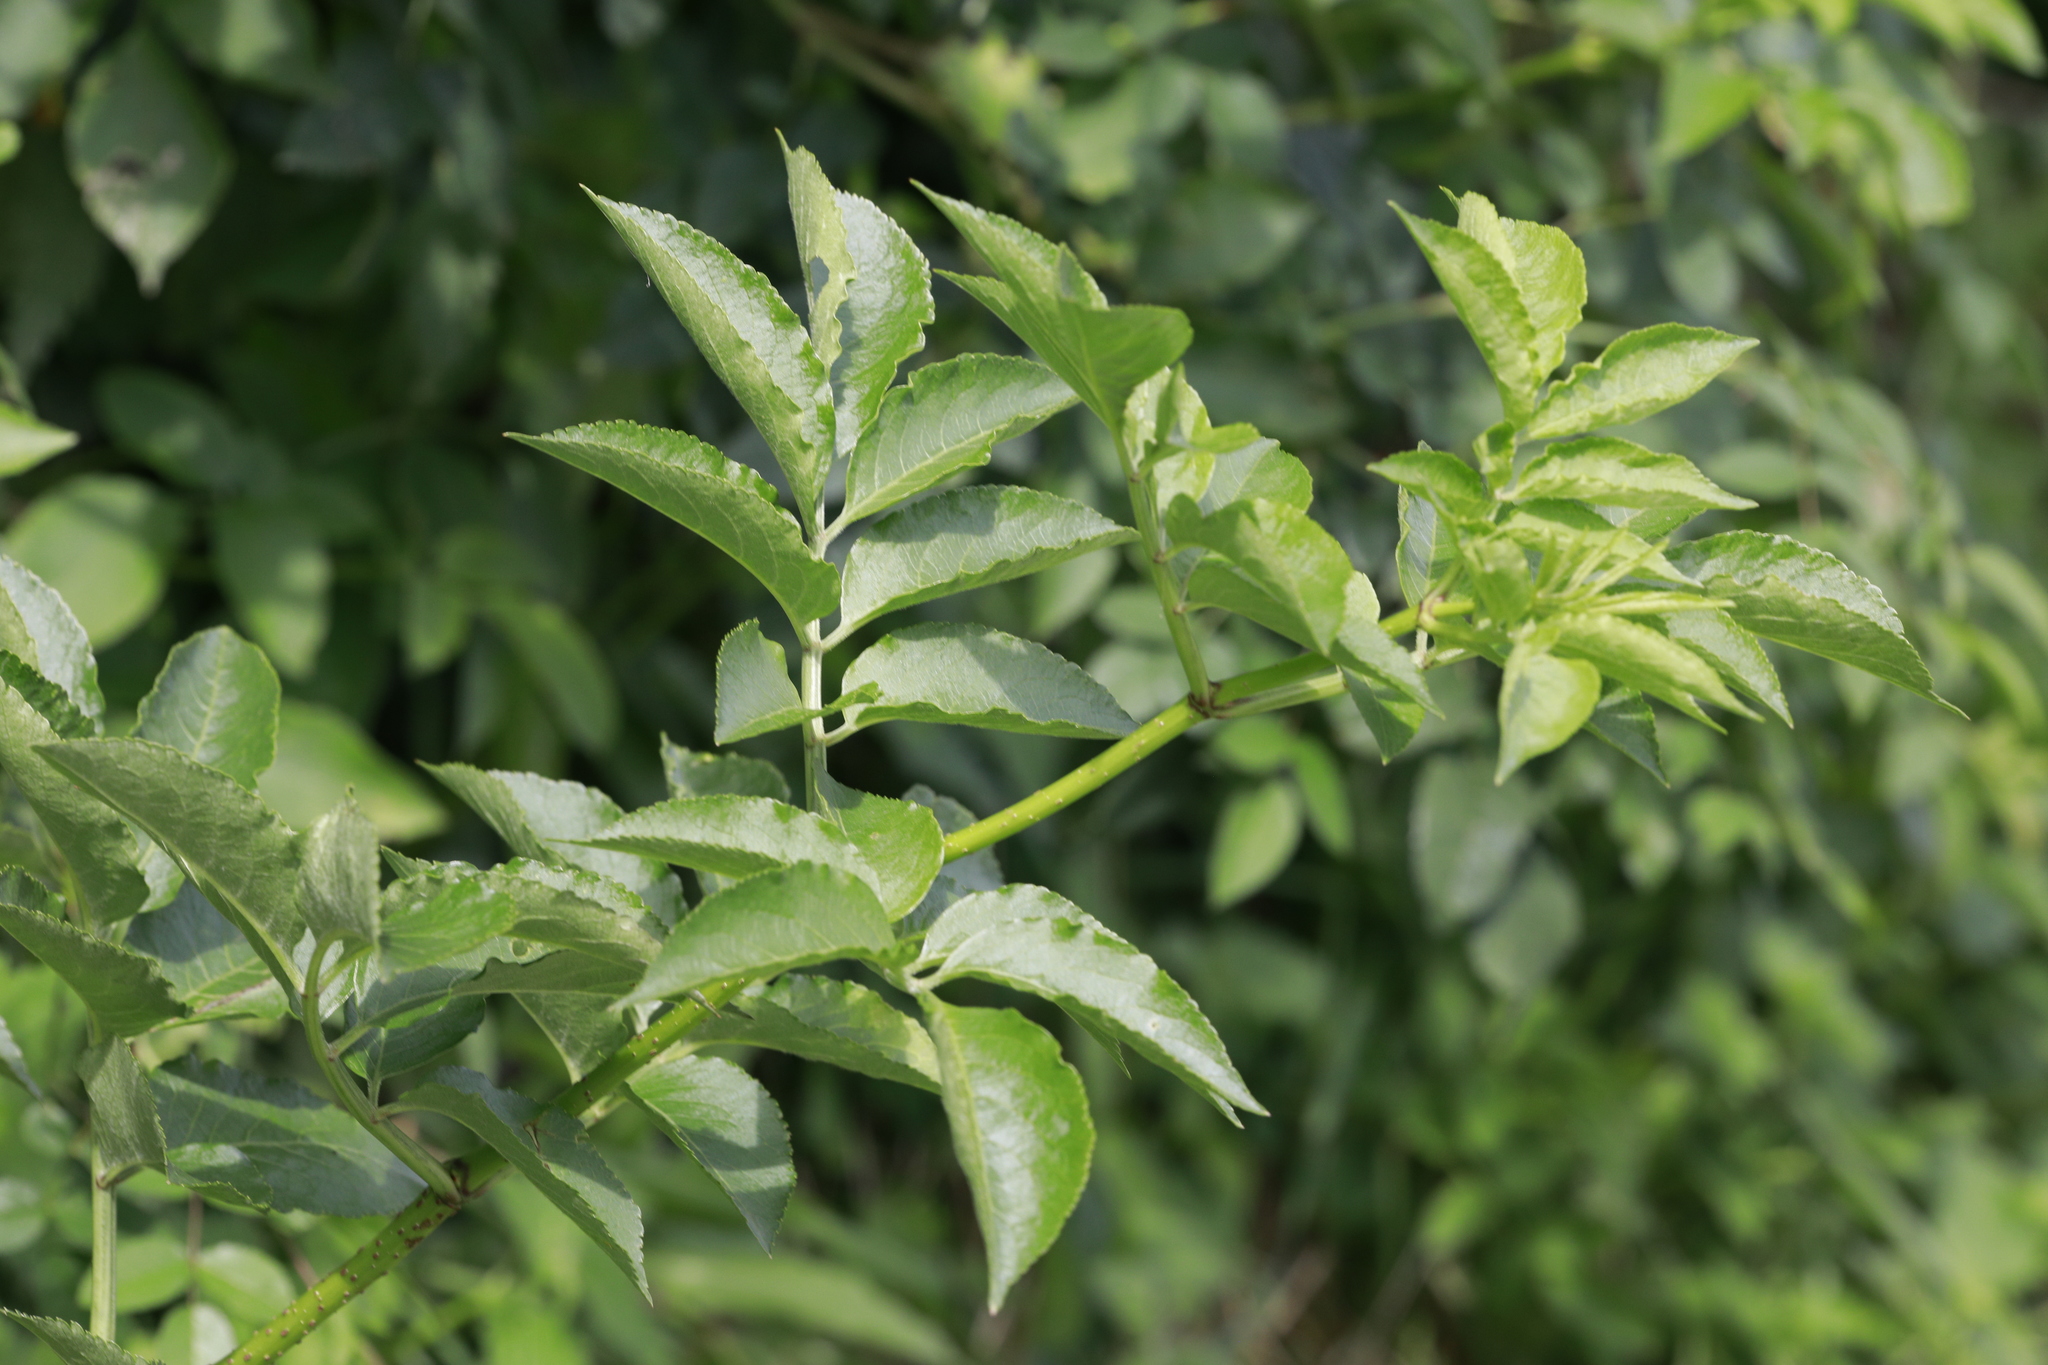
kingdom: Plantae
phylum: Tracheophyta
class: Magnoliopsida
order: Dipsacales
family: Viburnaceae
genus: Sambucus
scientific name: Sambucus nigra
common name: Elder
